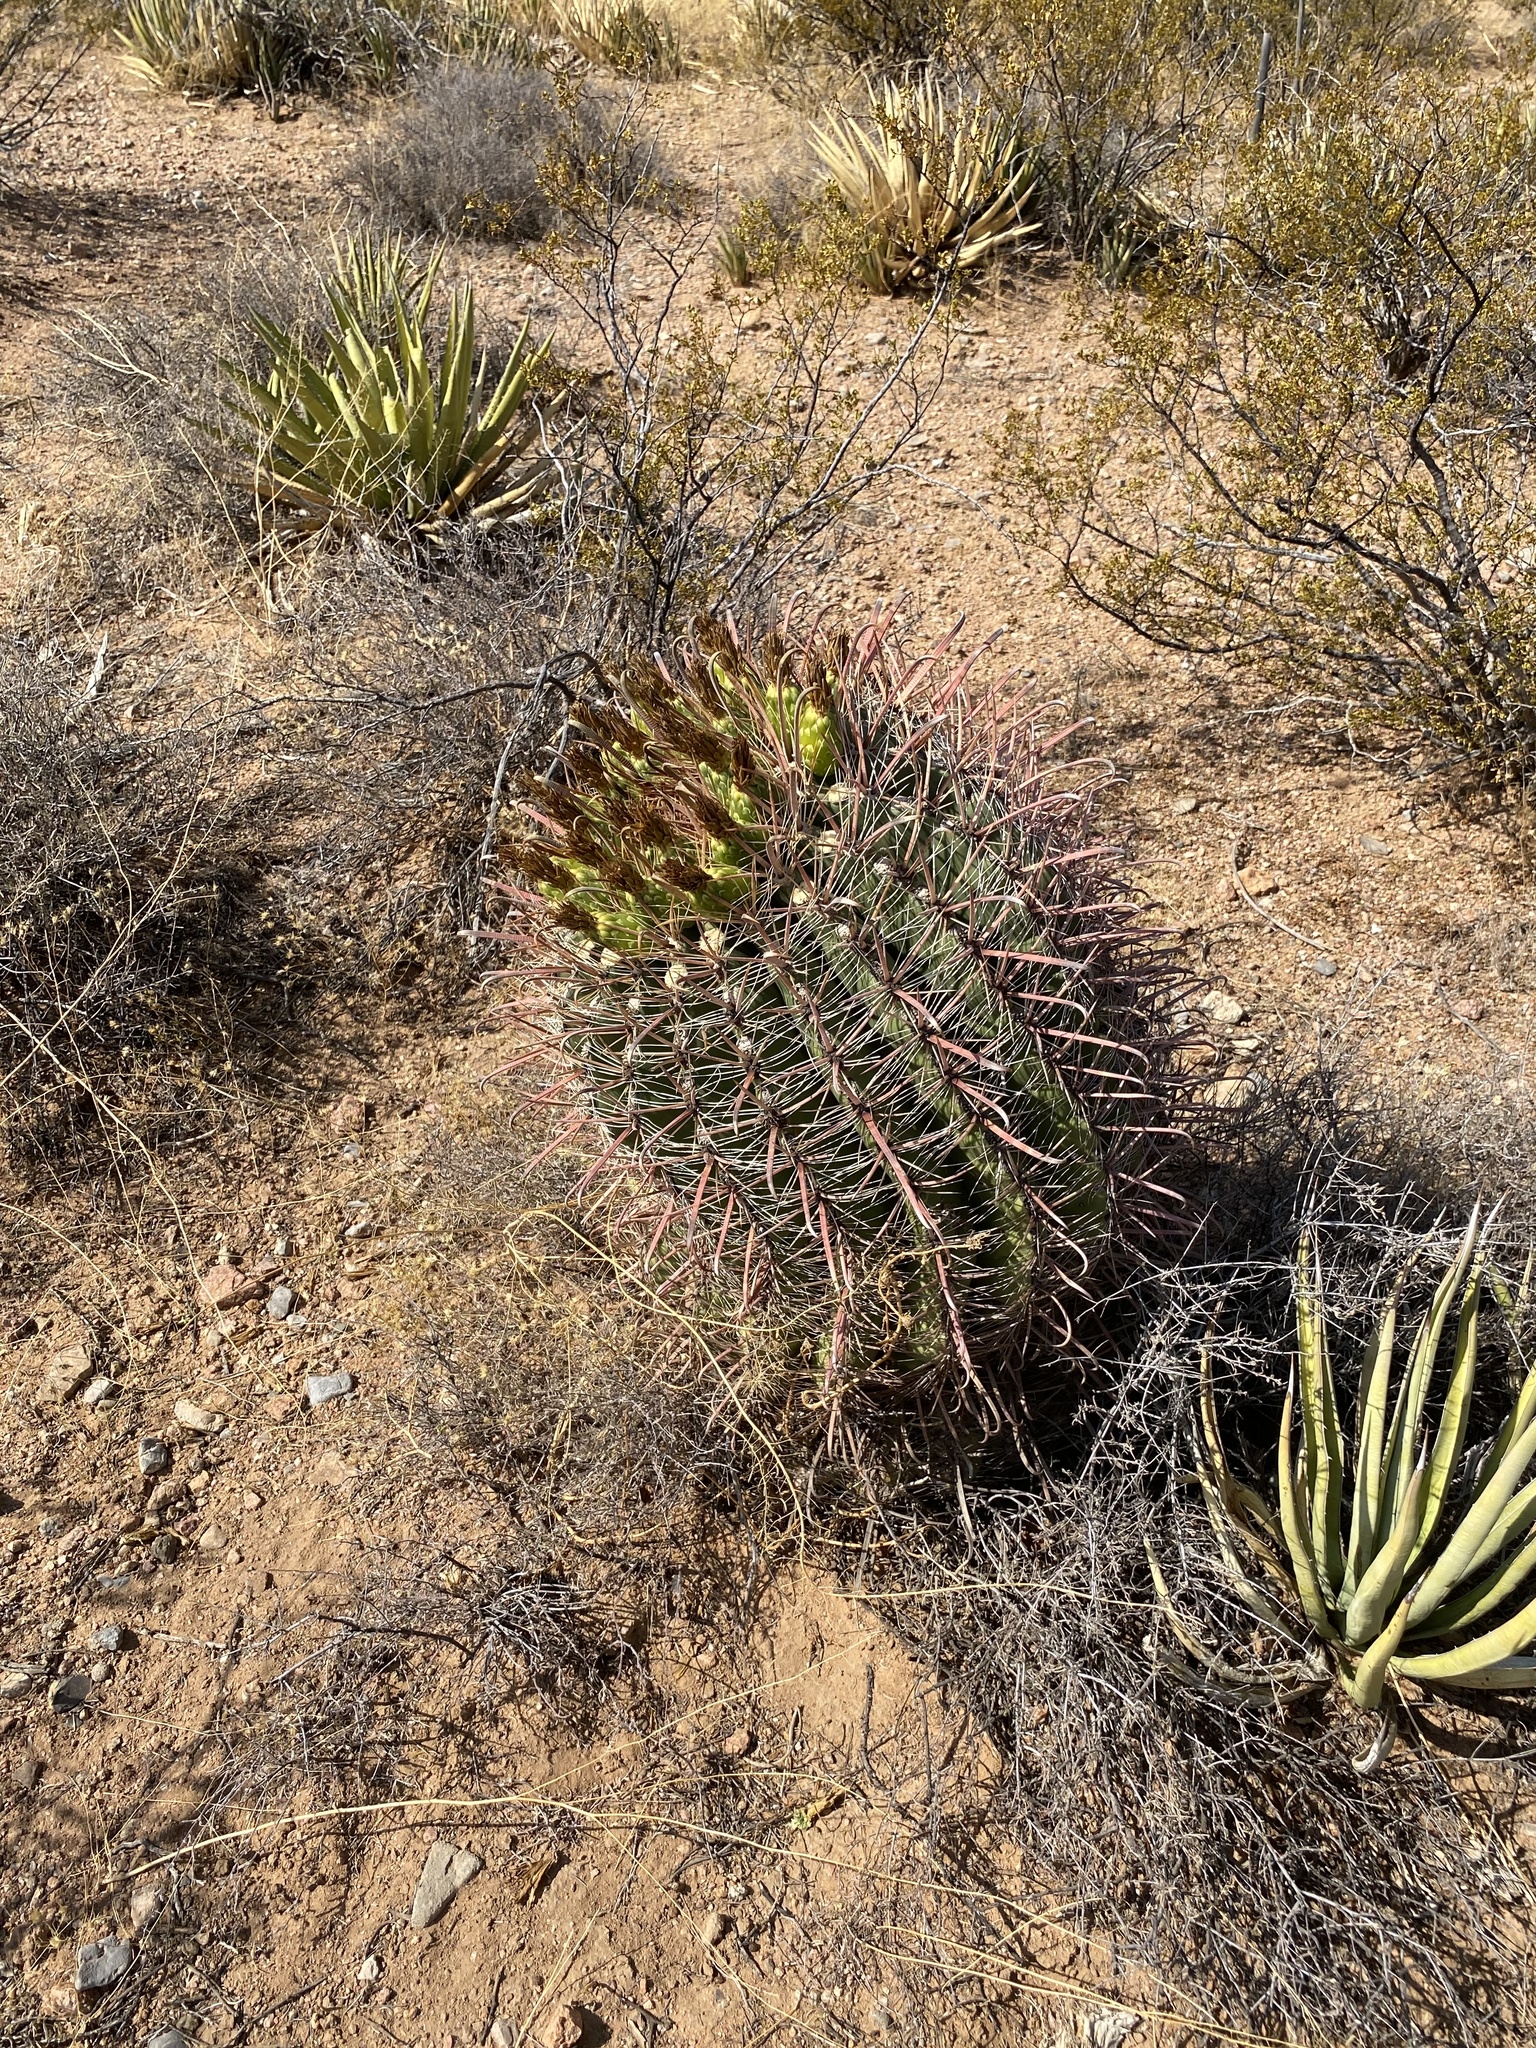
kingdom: Plantae
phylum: Tracheophyta
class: Magnoliopsida
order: Caryophyllales
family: Cactaceae
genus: Ferocactus
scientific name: Ferocactus wislizeni
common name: Candy barrel cactus
